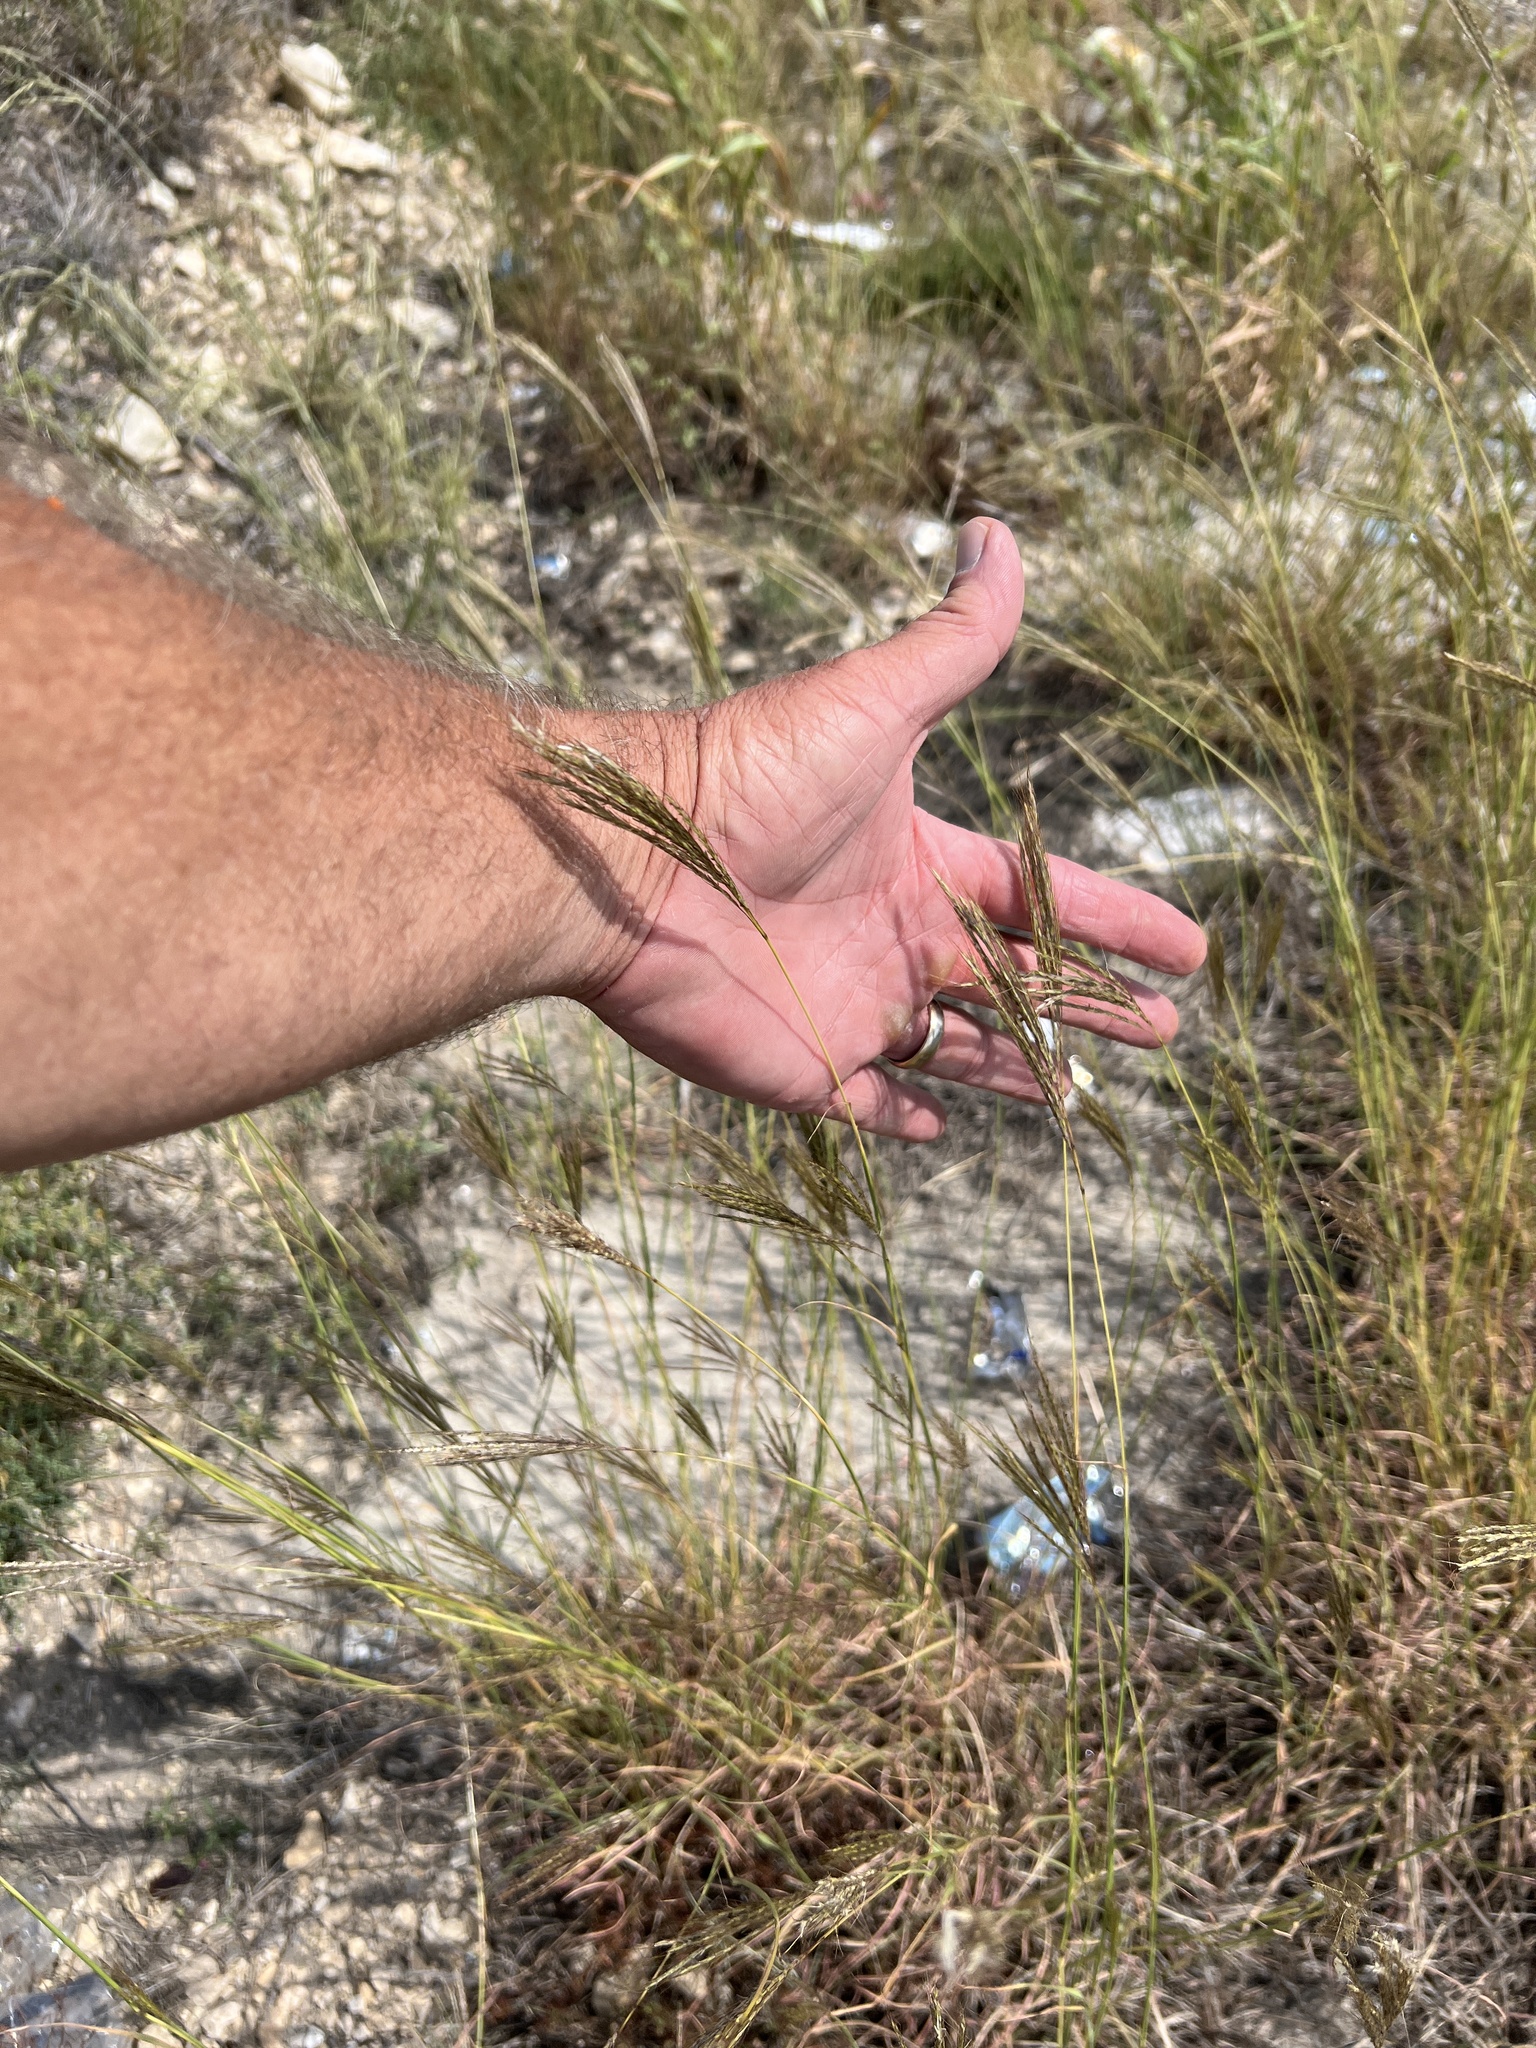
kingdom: Plantae
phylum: Tracheophyta
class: Liliopsida
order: Poales
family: Poaceae
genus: Bothriochloa
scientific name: Bothriochloa ischaemum
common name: Yellow bluestem
